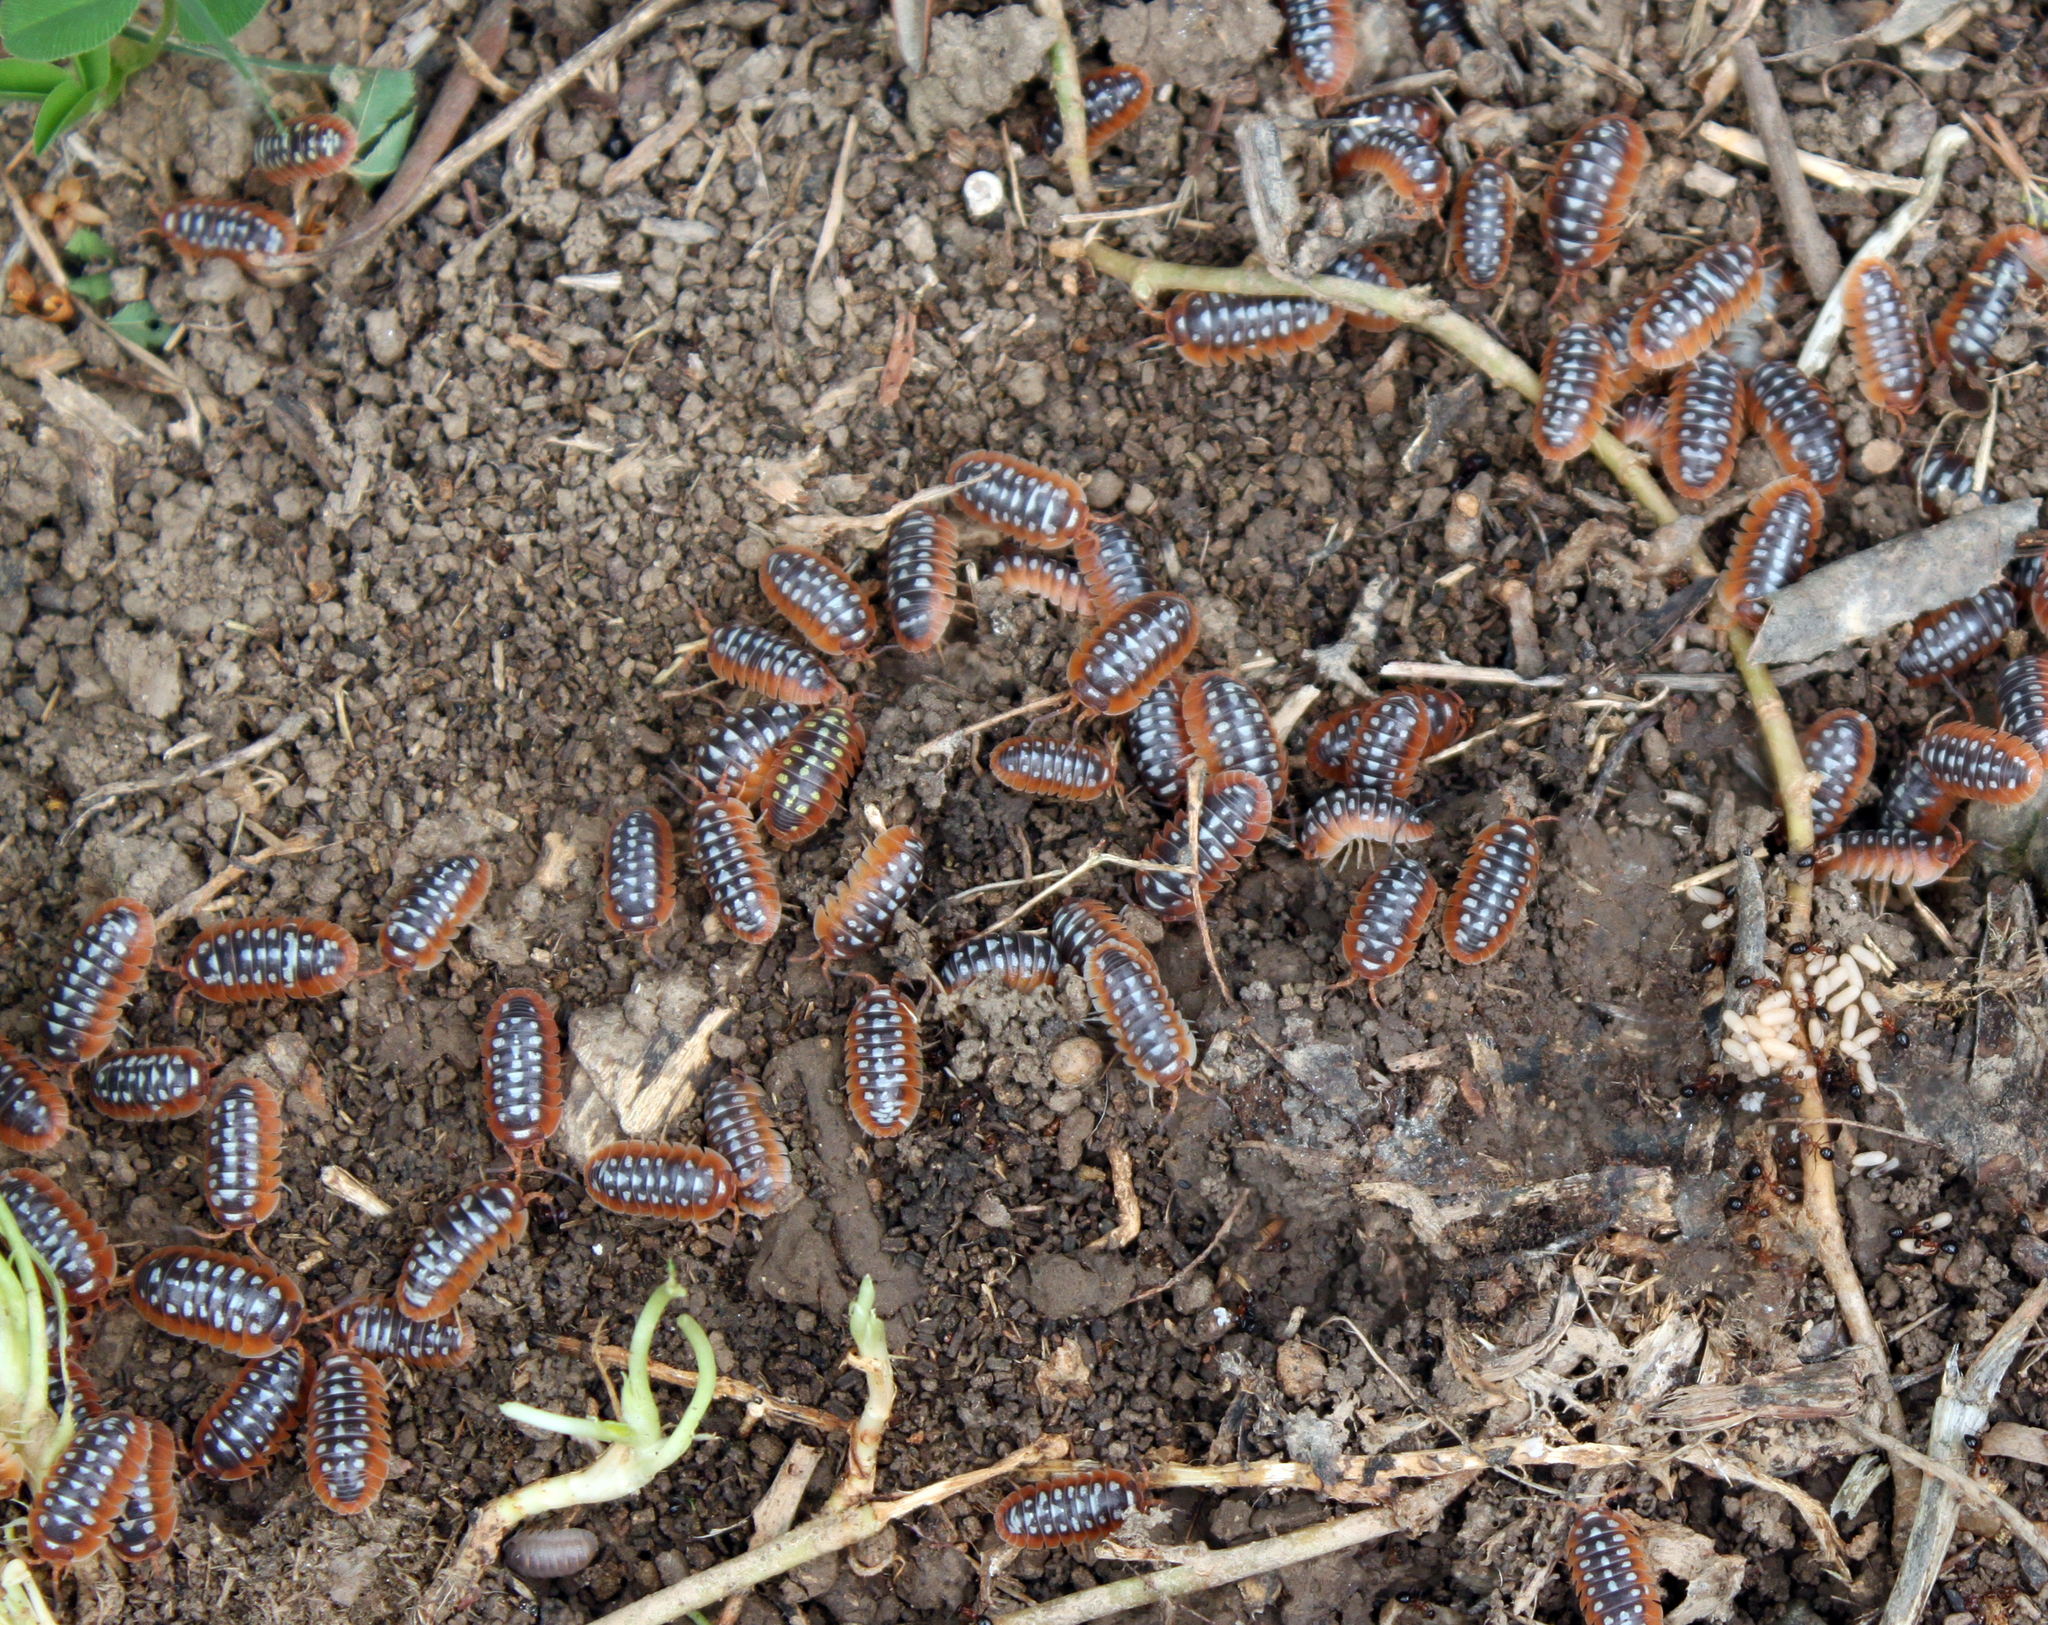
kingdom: Animalia
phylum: Arthropoda
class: Malacostraca
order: Isopoda
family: Armadillidiidae
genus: Armadillidium
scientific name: Armadillidium klugii
